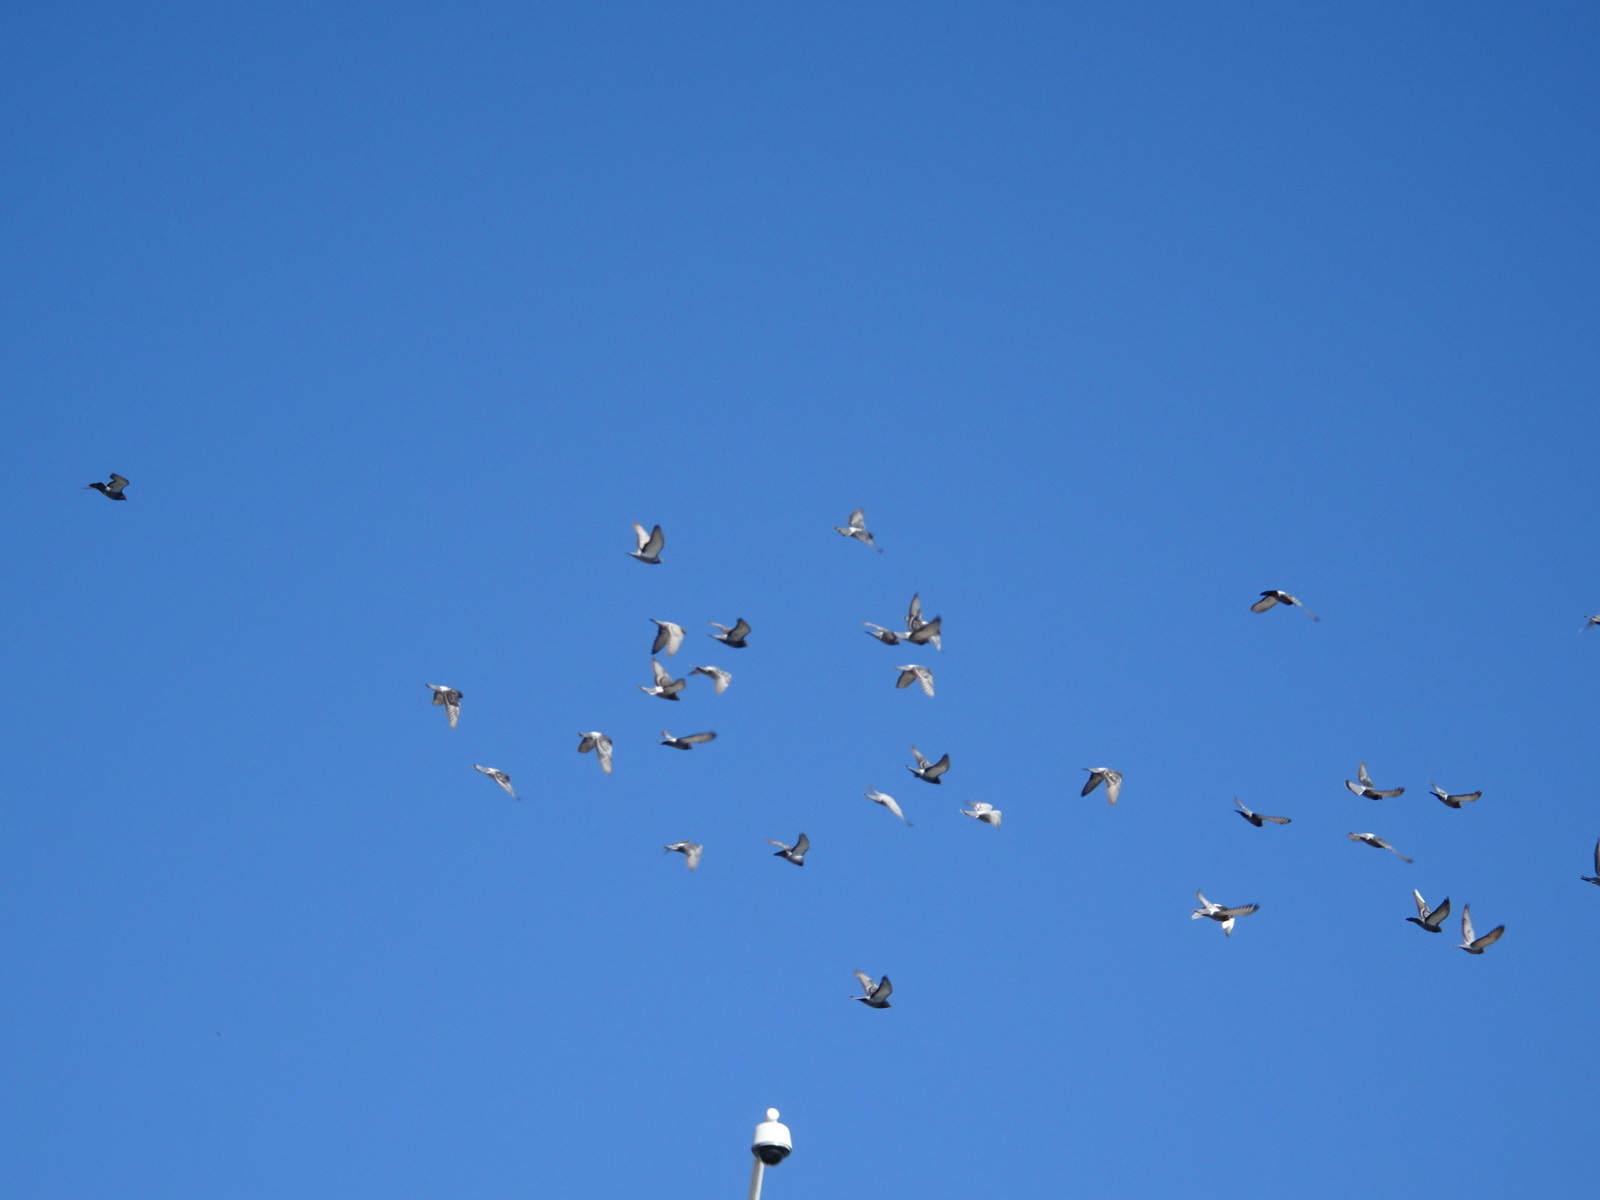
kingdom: Animalia
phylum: Chordata
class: Aves
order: Columbiformes
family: Columbidae
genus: Columba
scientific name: Columba livia
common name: Rock pigeon
